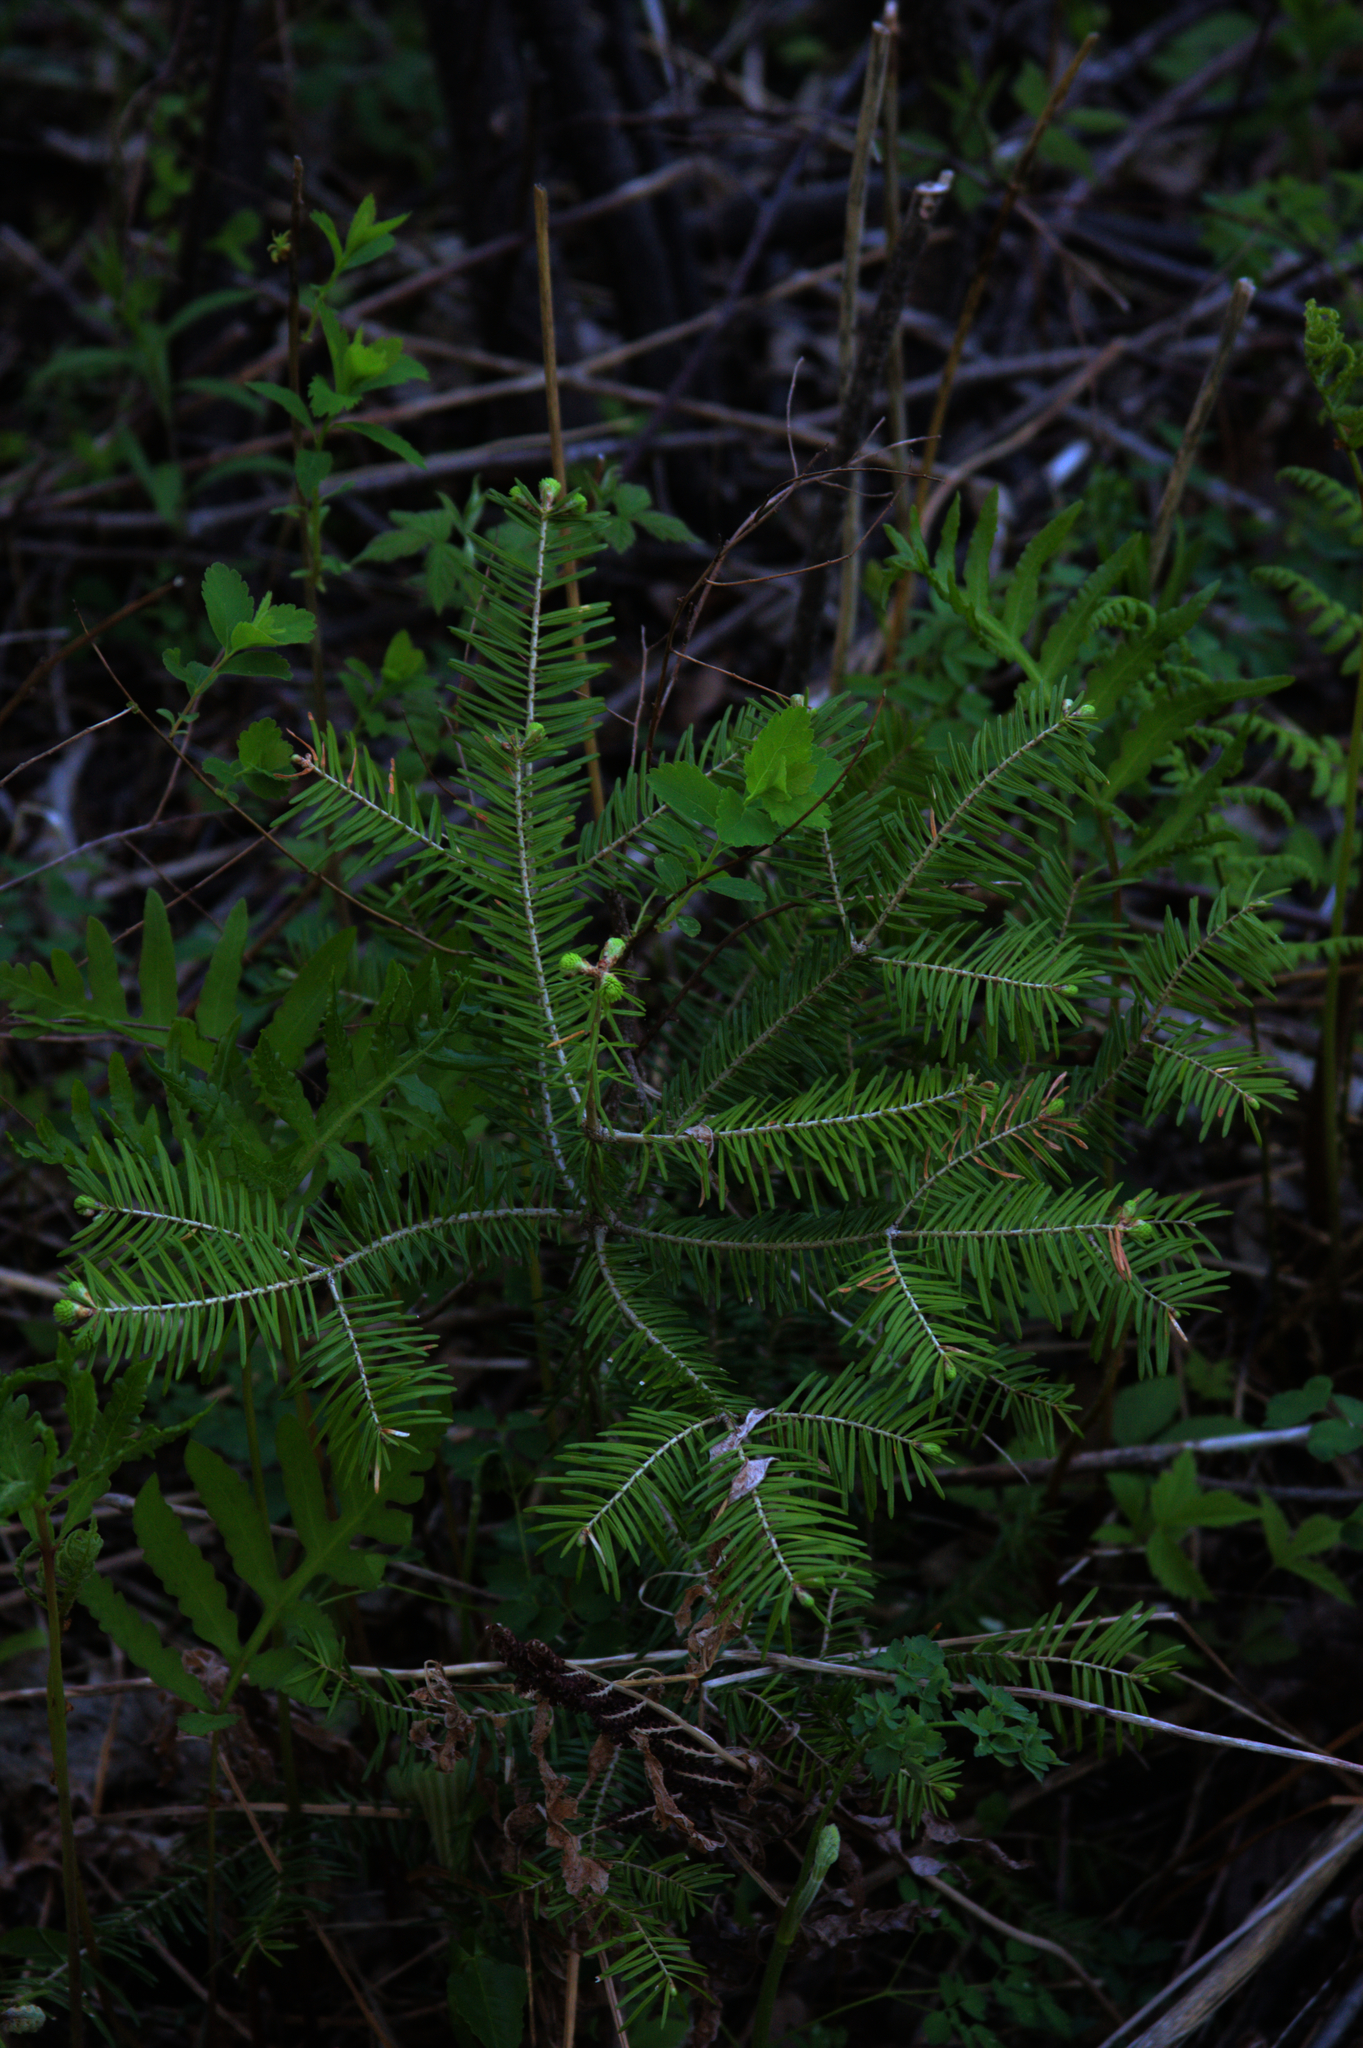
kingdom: Plantae
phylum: Tracheophyta
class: Pinopsida
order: Pinales
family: Pinaceae
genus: Abies
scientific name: Abies balsamea
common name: Balsam fir
